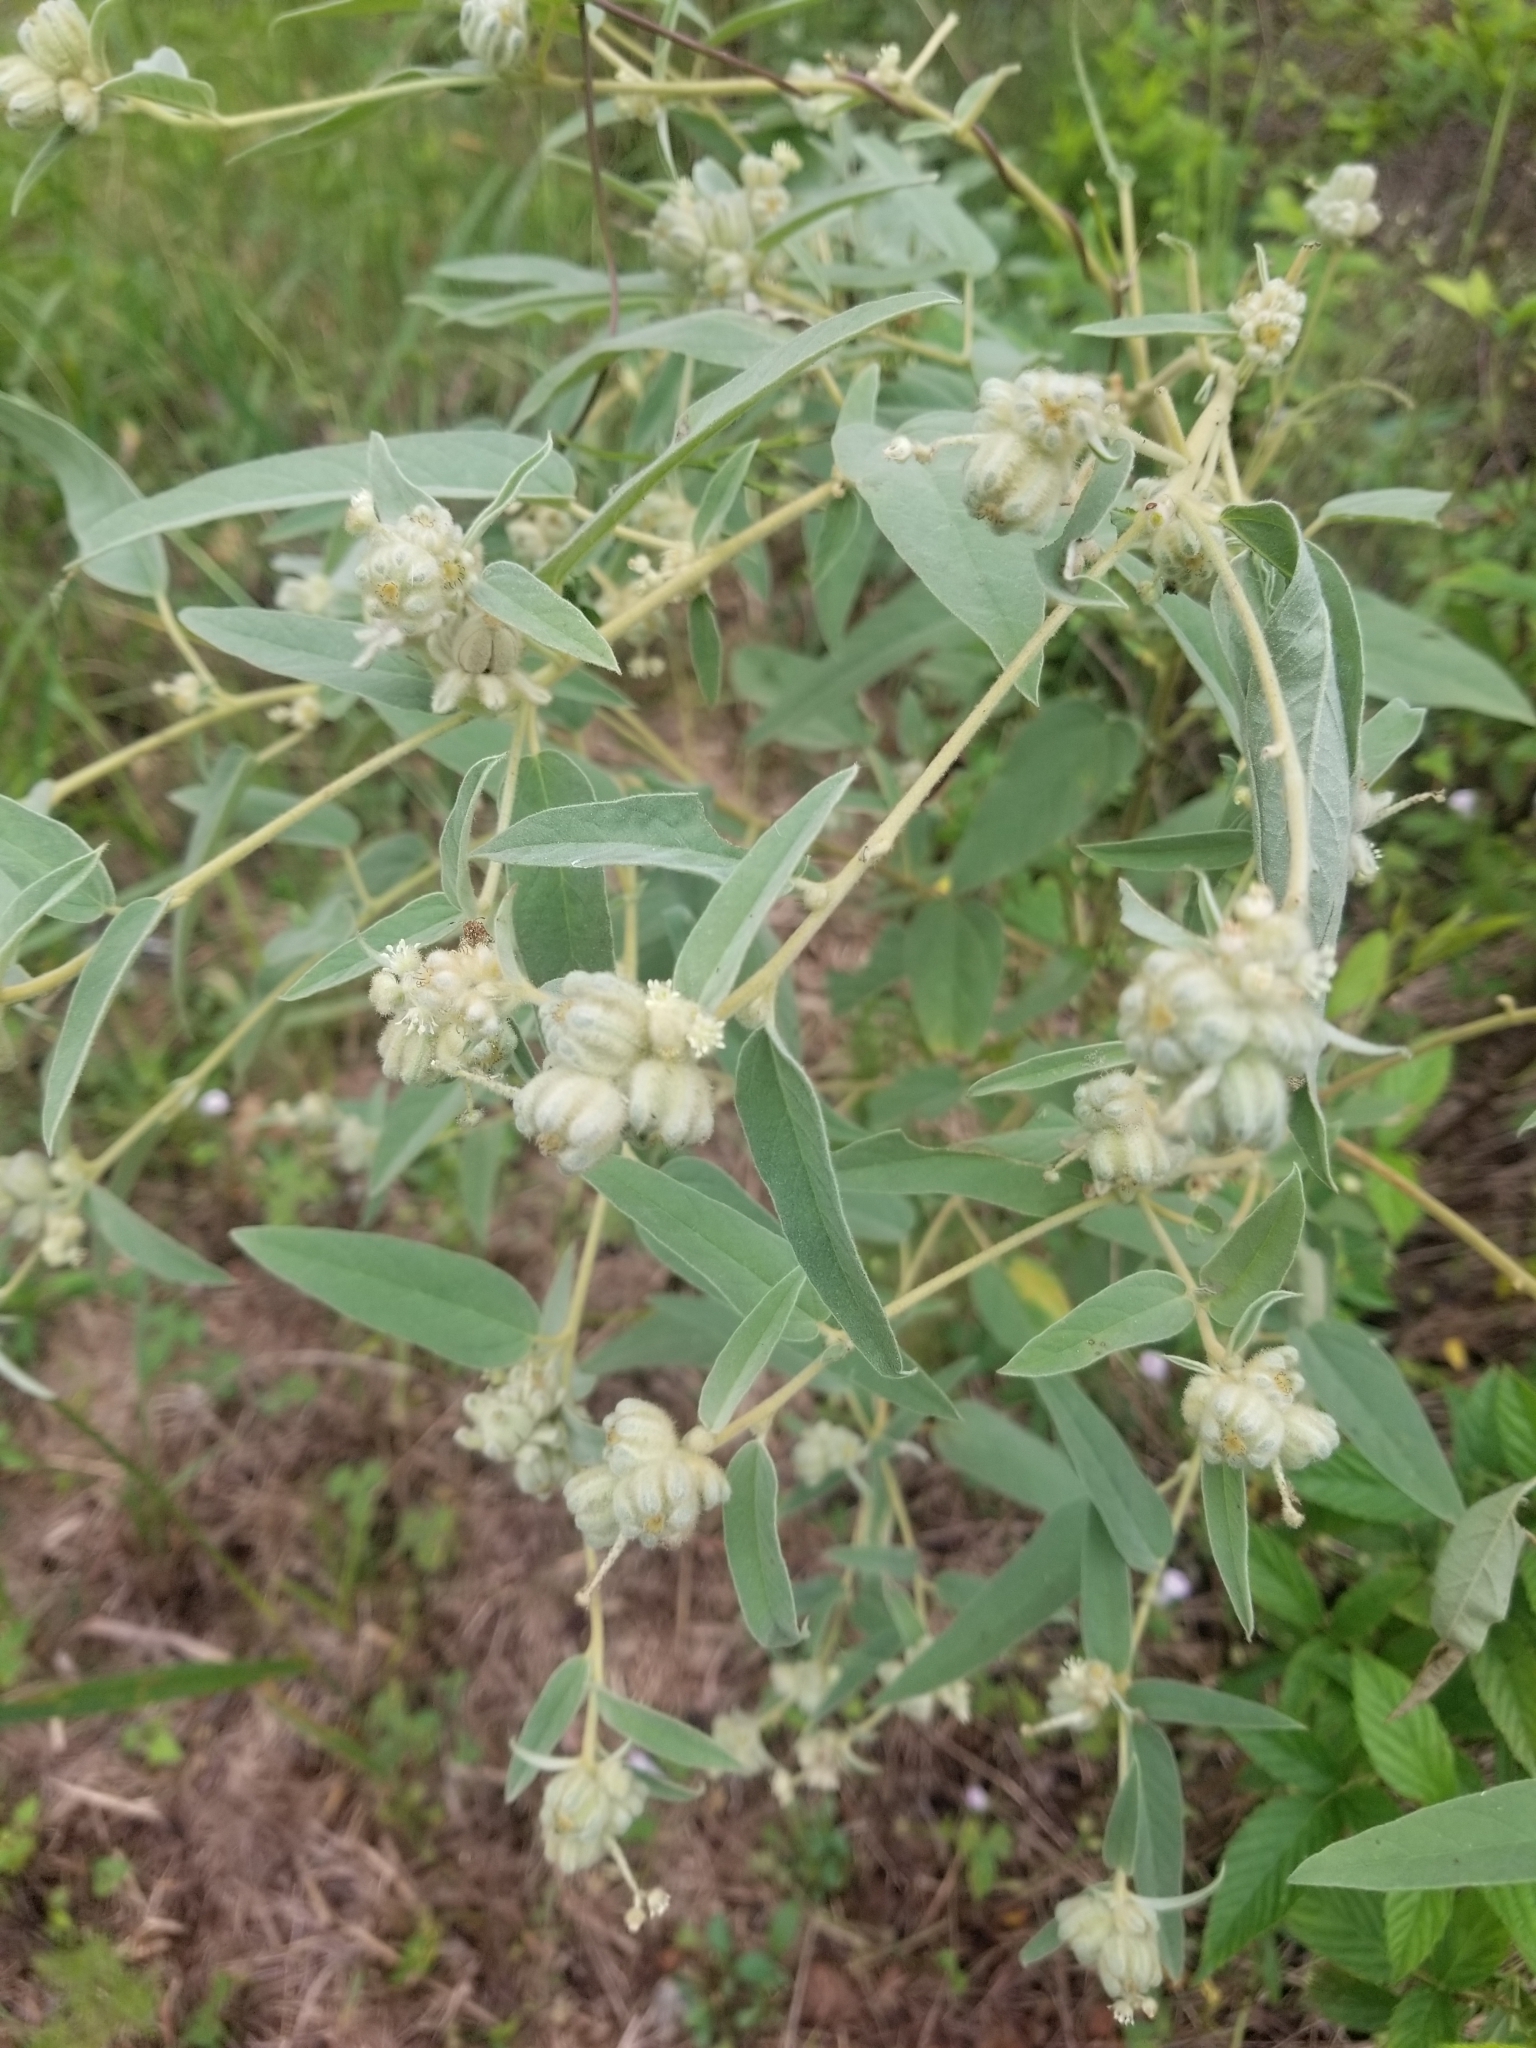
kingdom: Plantae
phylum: Tracheophyta
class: Magnoliopsida
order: Malpighiales
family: Euphorbiaceae
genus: Croton
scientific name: Croton lindheimeri
